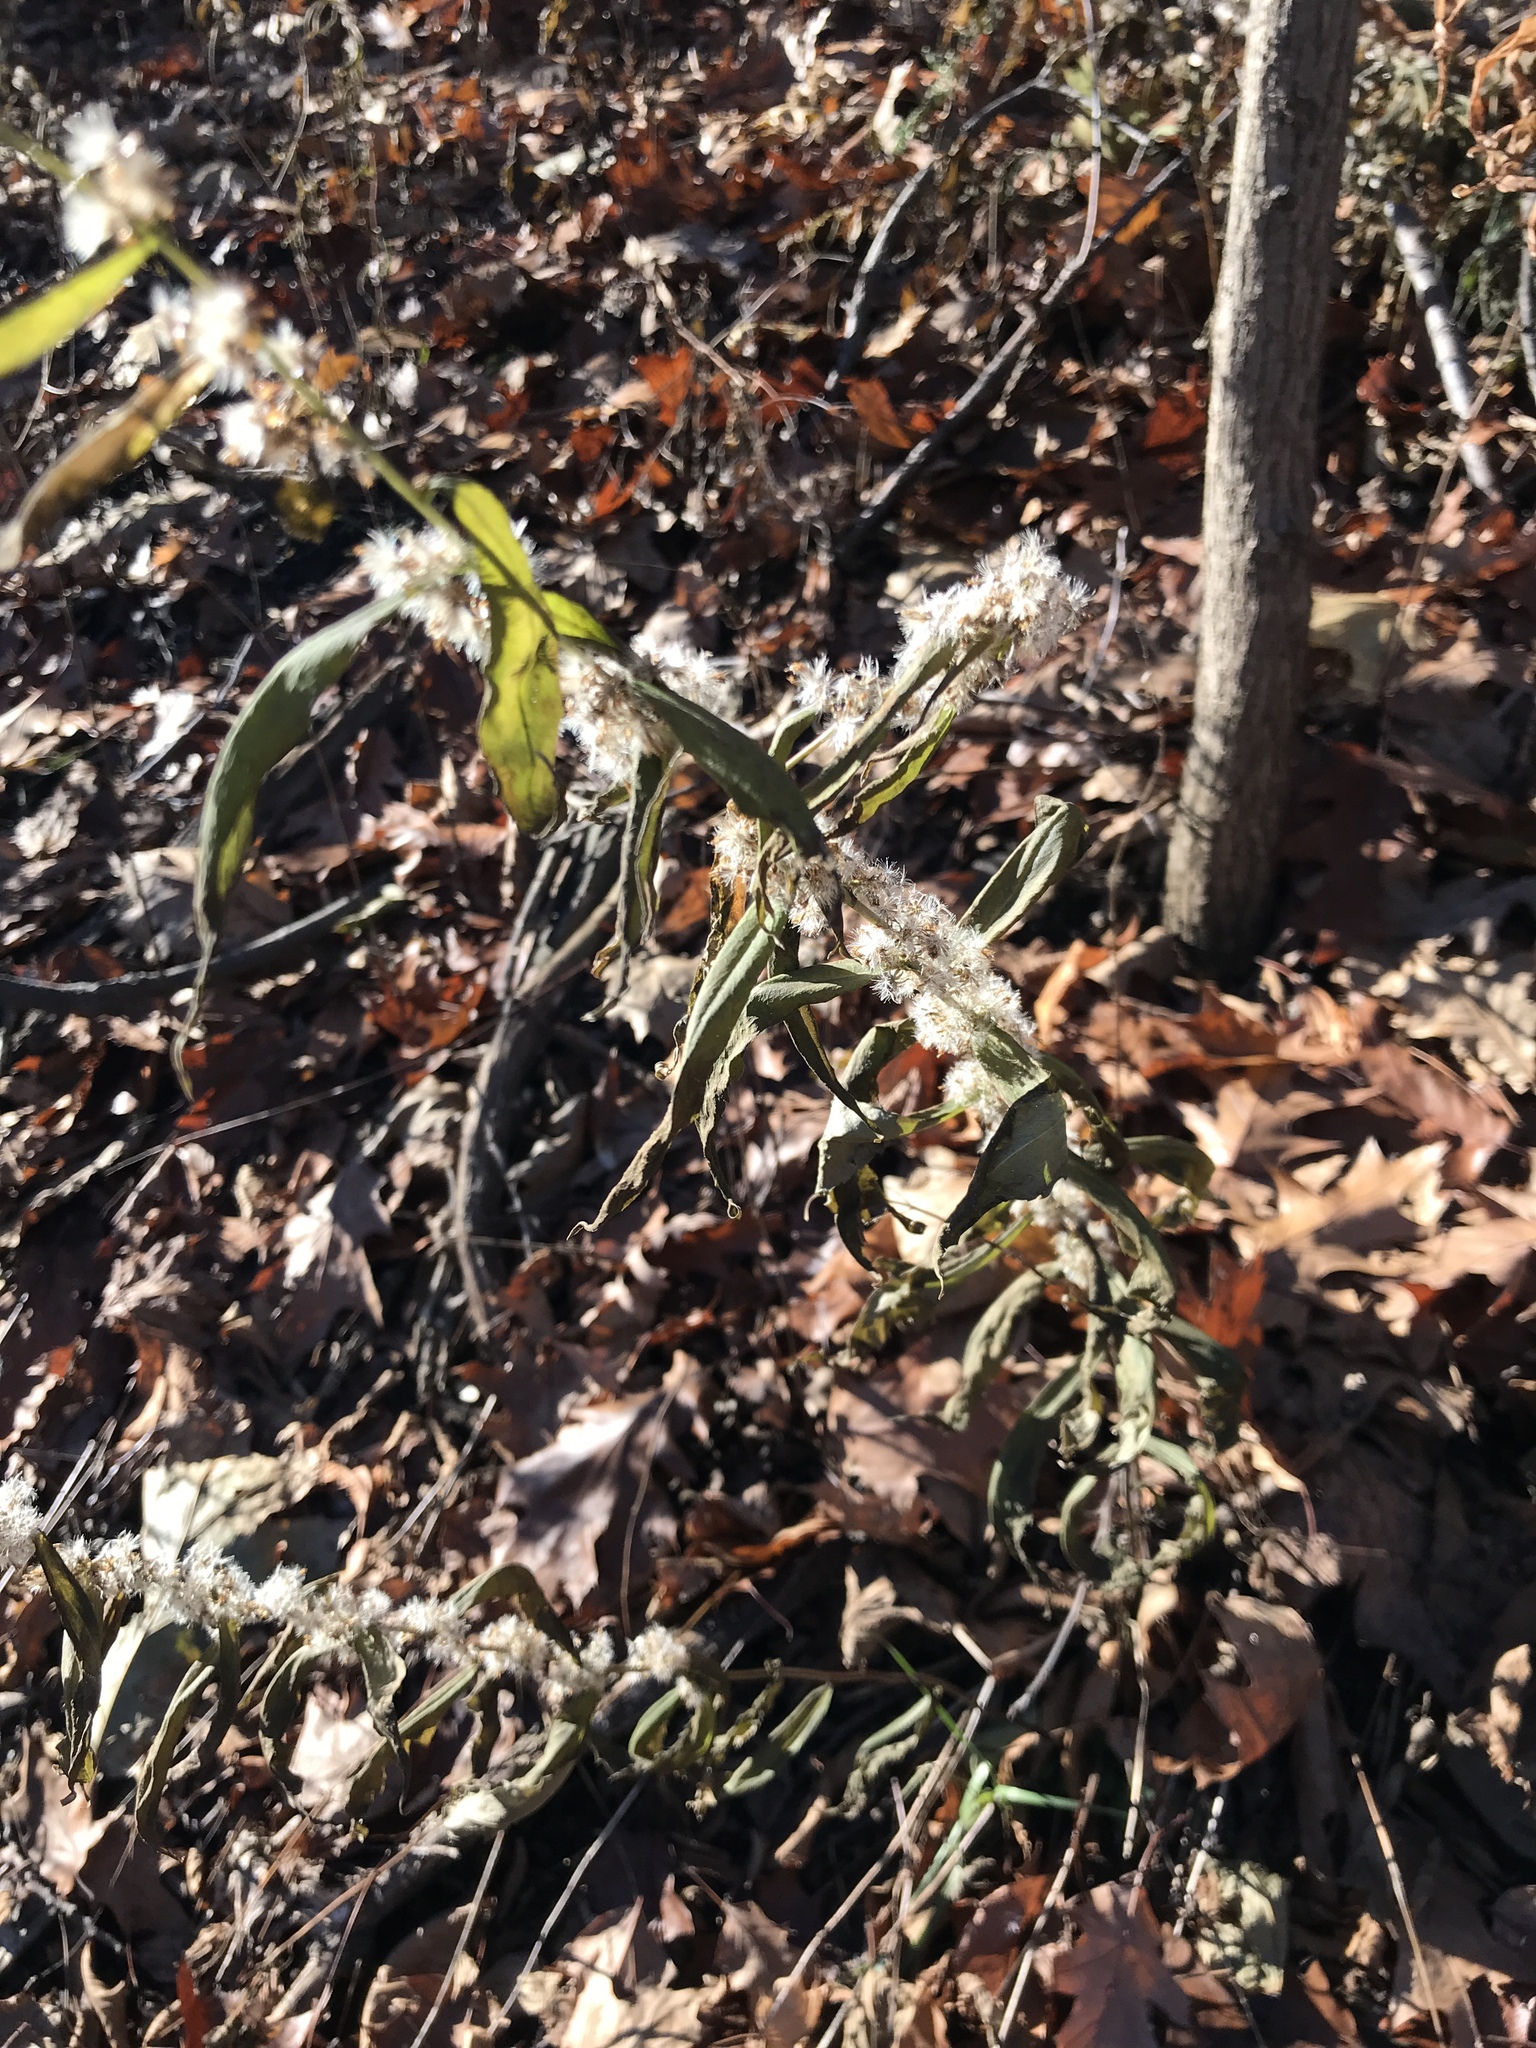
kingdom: Plantae
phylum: Tracheophyta
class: Magnoliopsida
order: Asterales
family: Asteraceae
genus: Solidago
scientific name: Solidago caesia
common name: Woodland goldenrod
